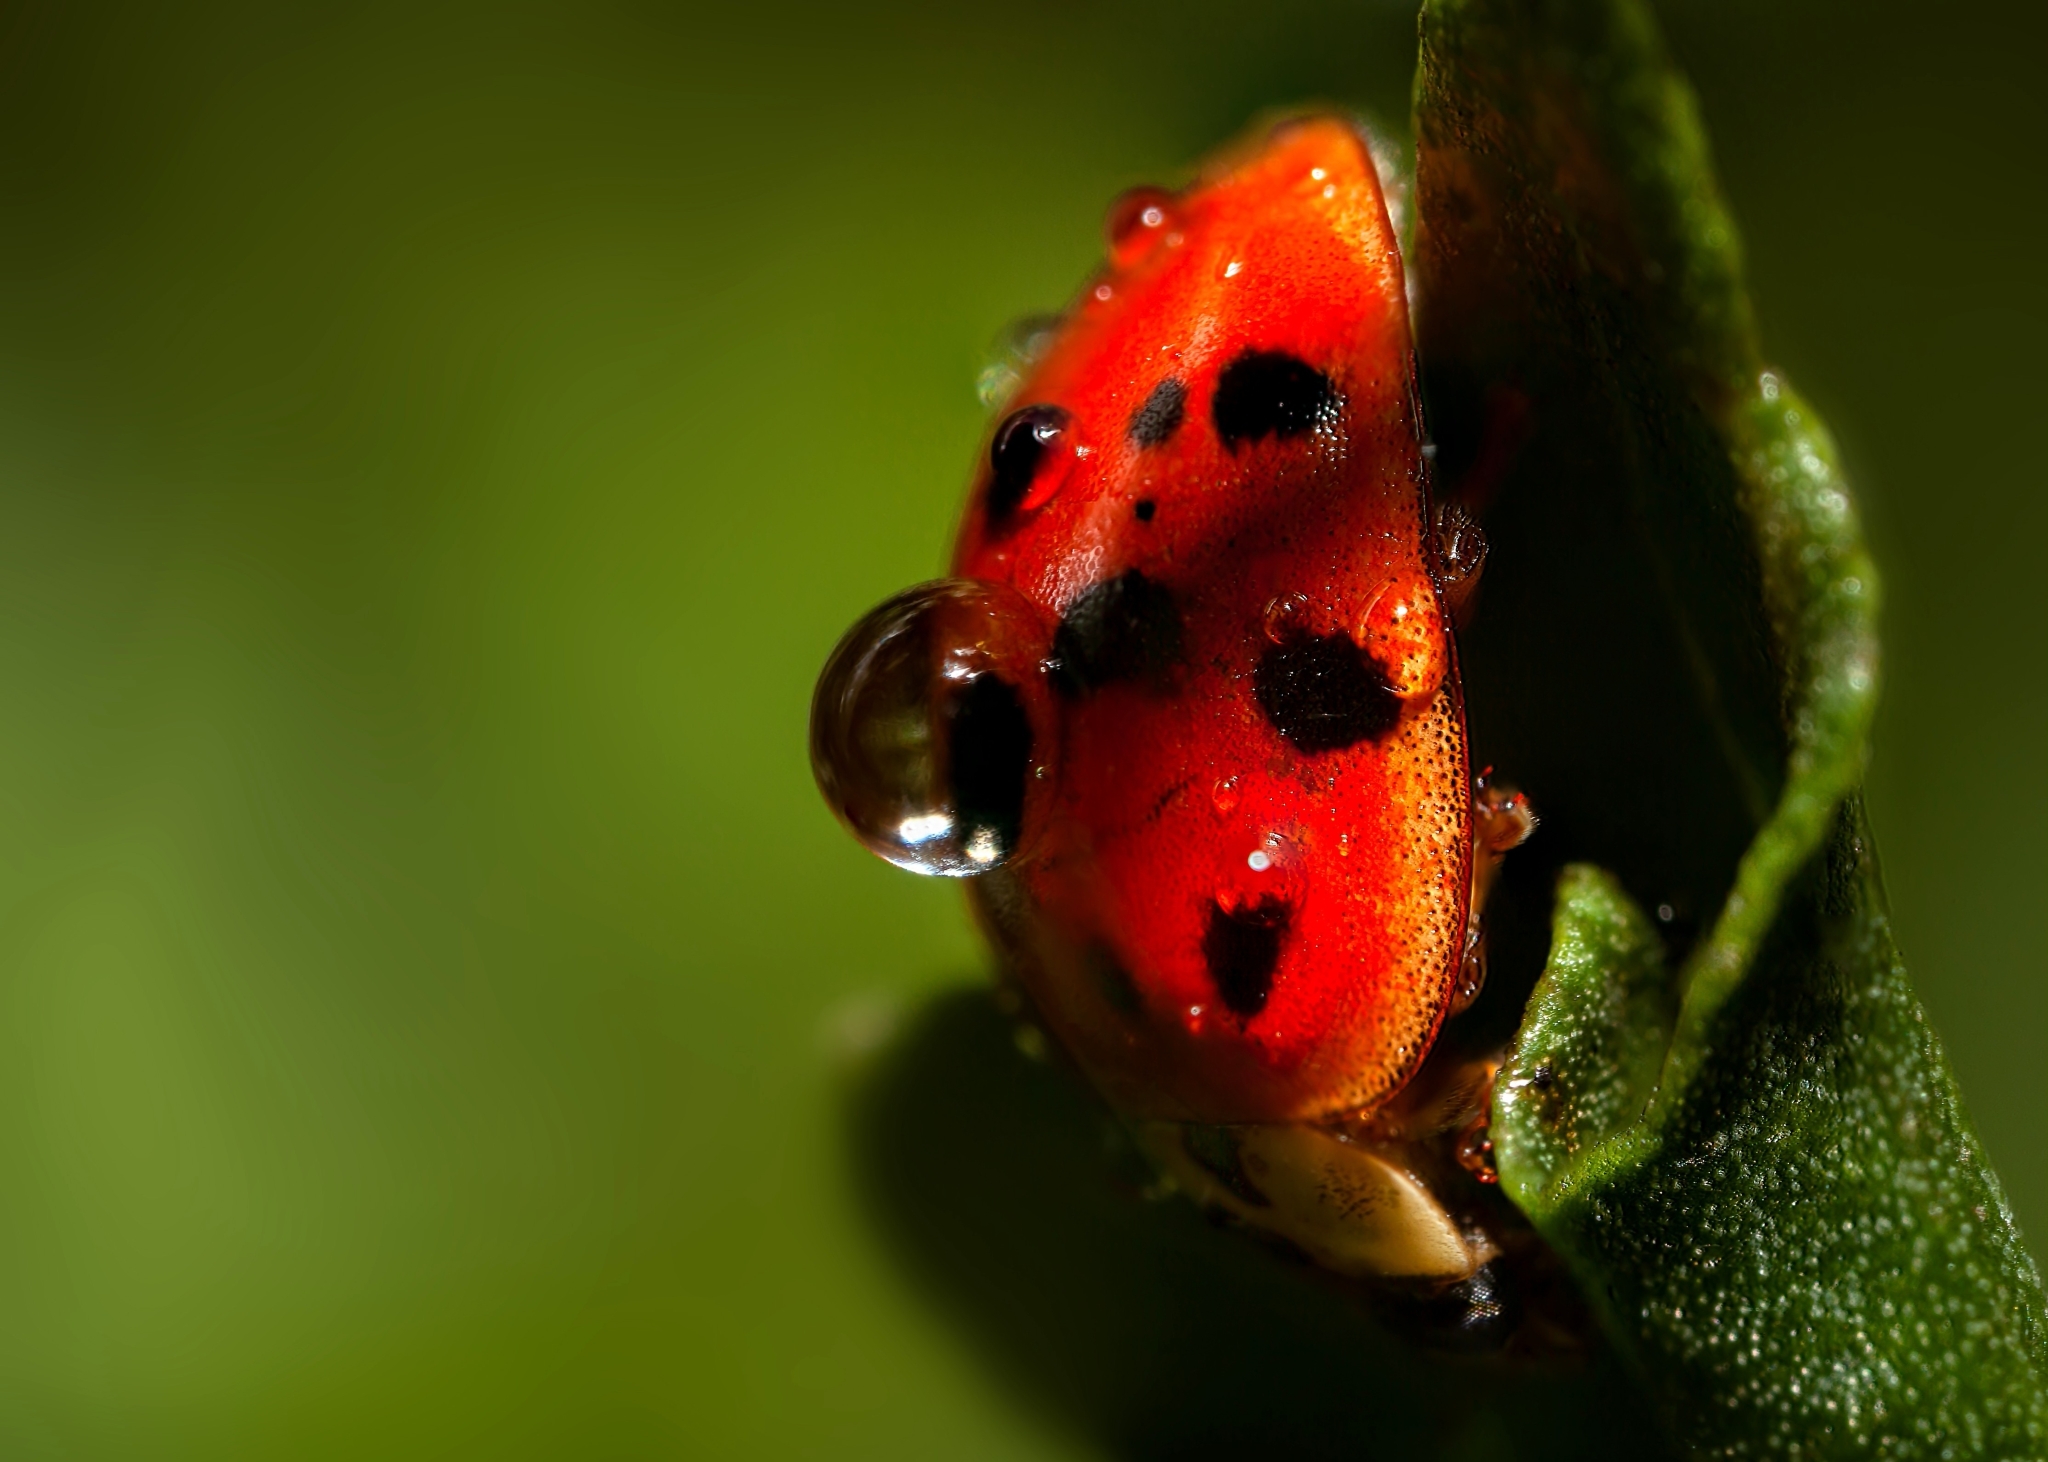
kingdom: Animalia
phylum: Arthropoda
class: Insecta
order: Coleoptera
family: Coccinellidae
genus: Harmonia
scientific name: Harmonia axyridis
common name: Harlequin ladybird
